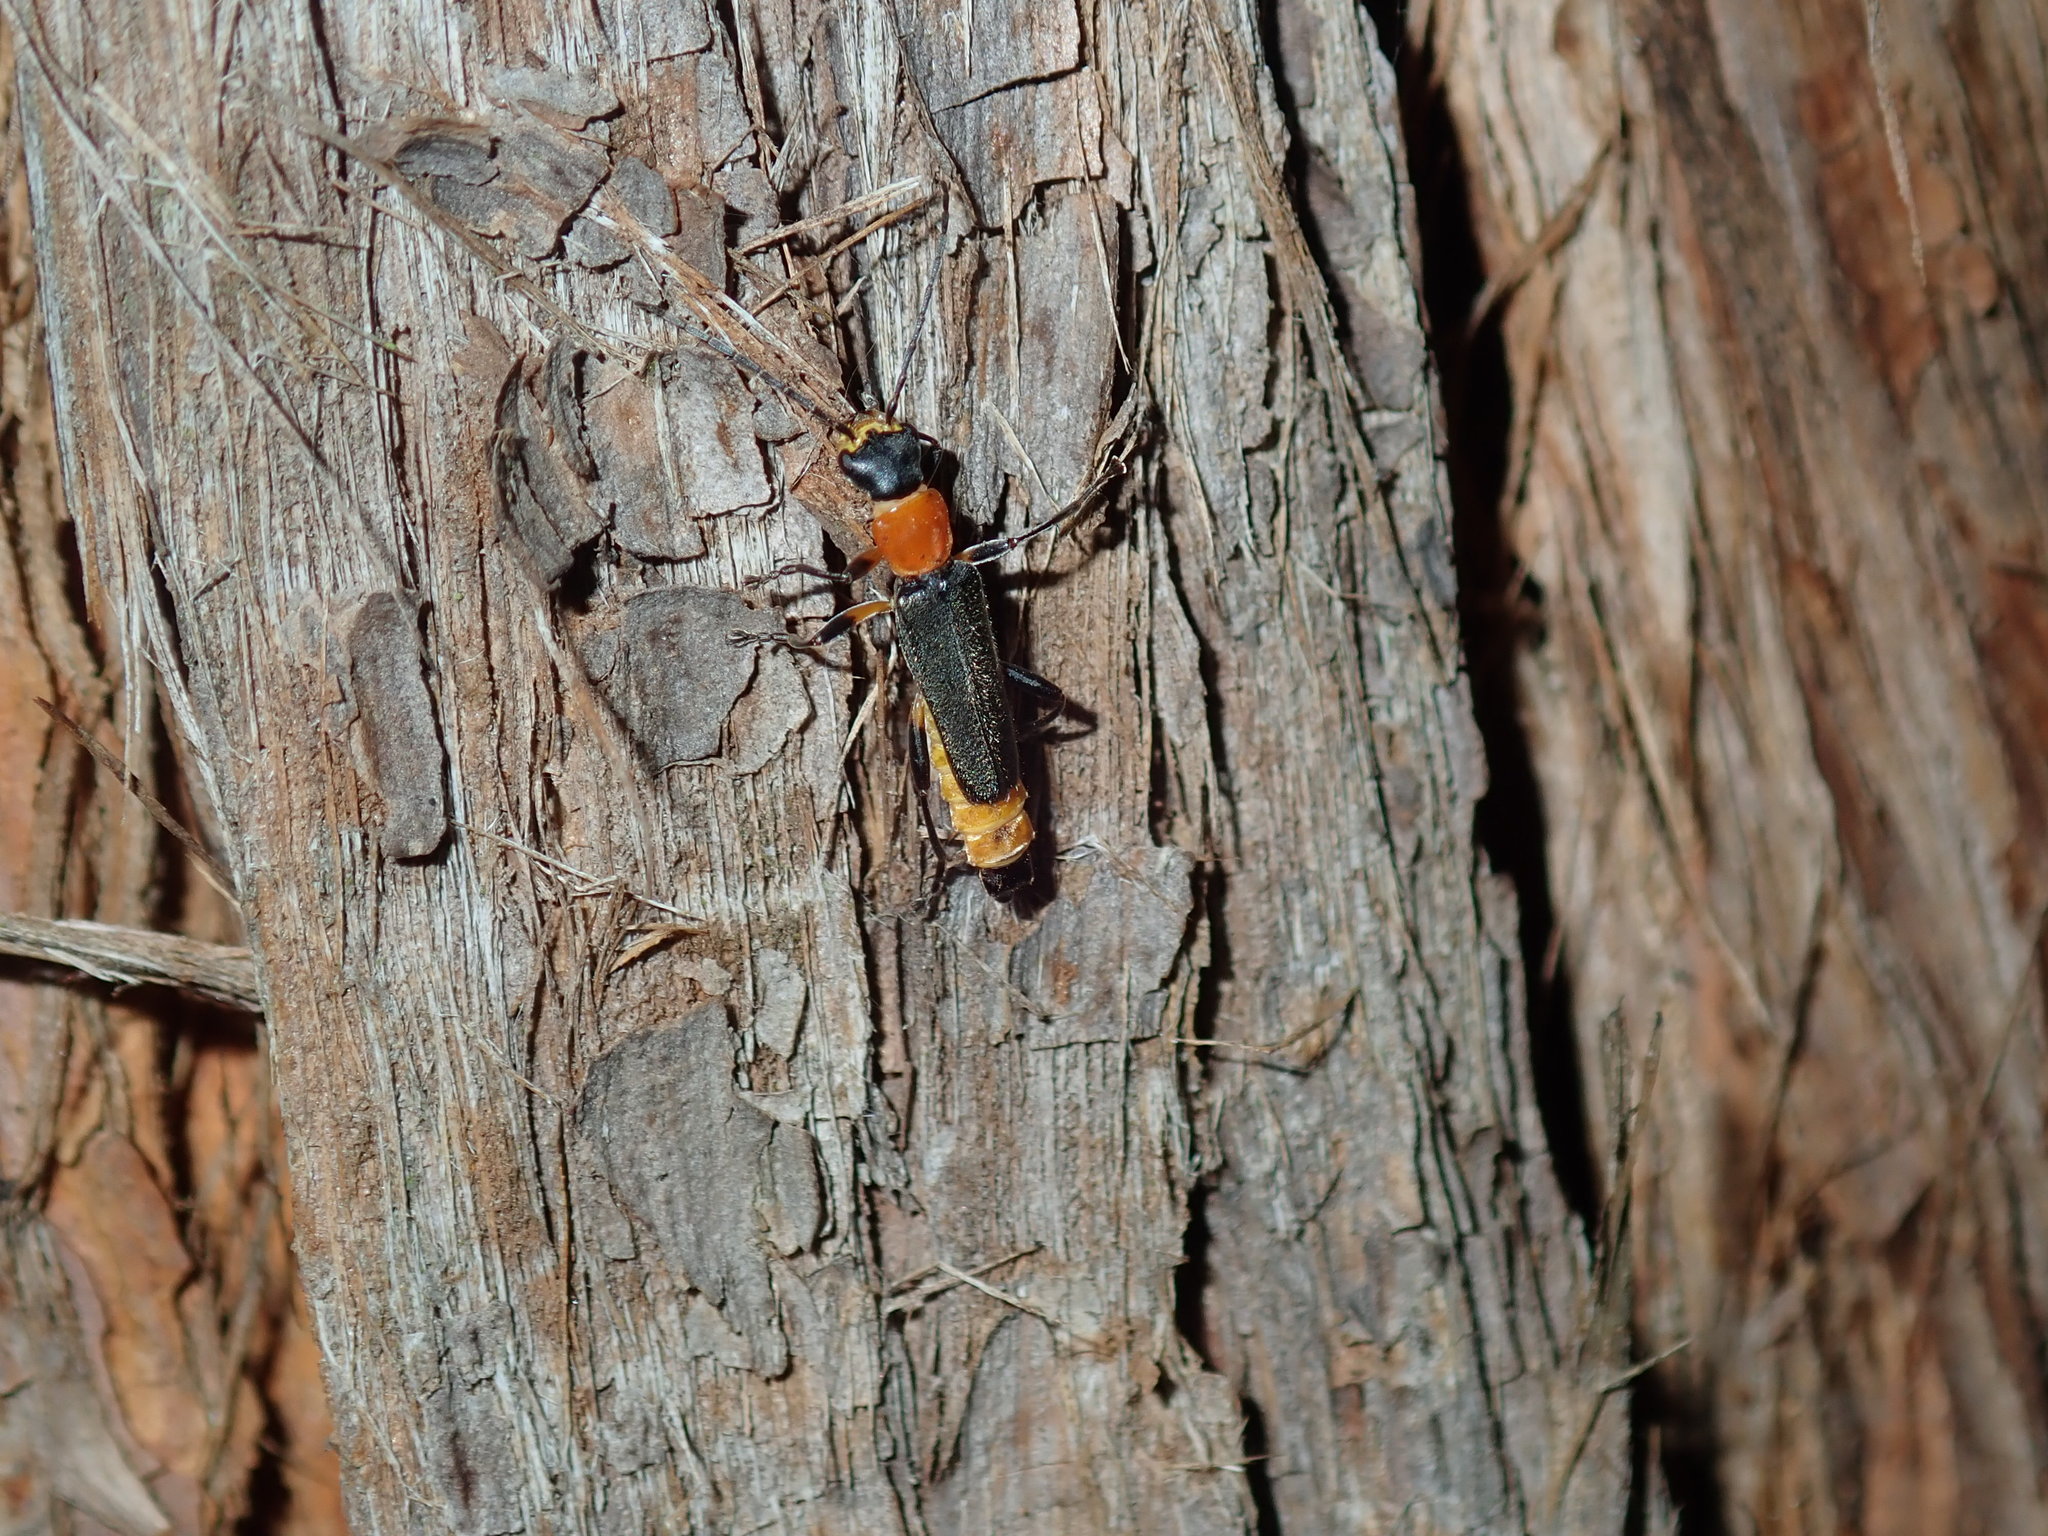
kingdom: Animalia
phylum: Arthropoda
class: Insecta
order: Coleoptera
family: Cantharidae
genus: Chauliognathus
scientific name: Chauliognathus
